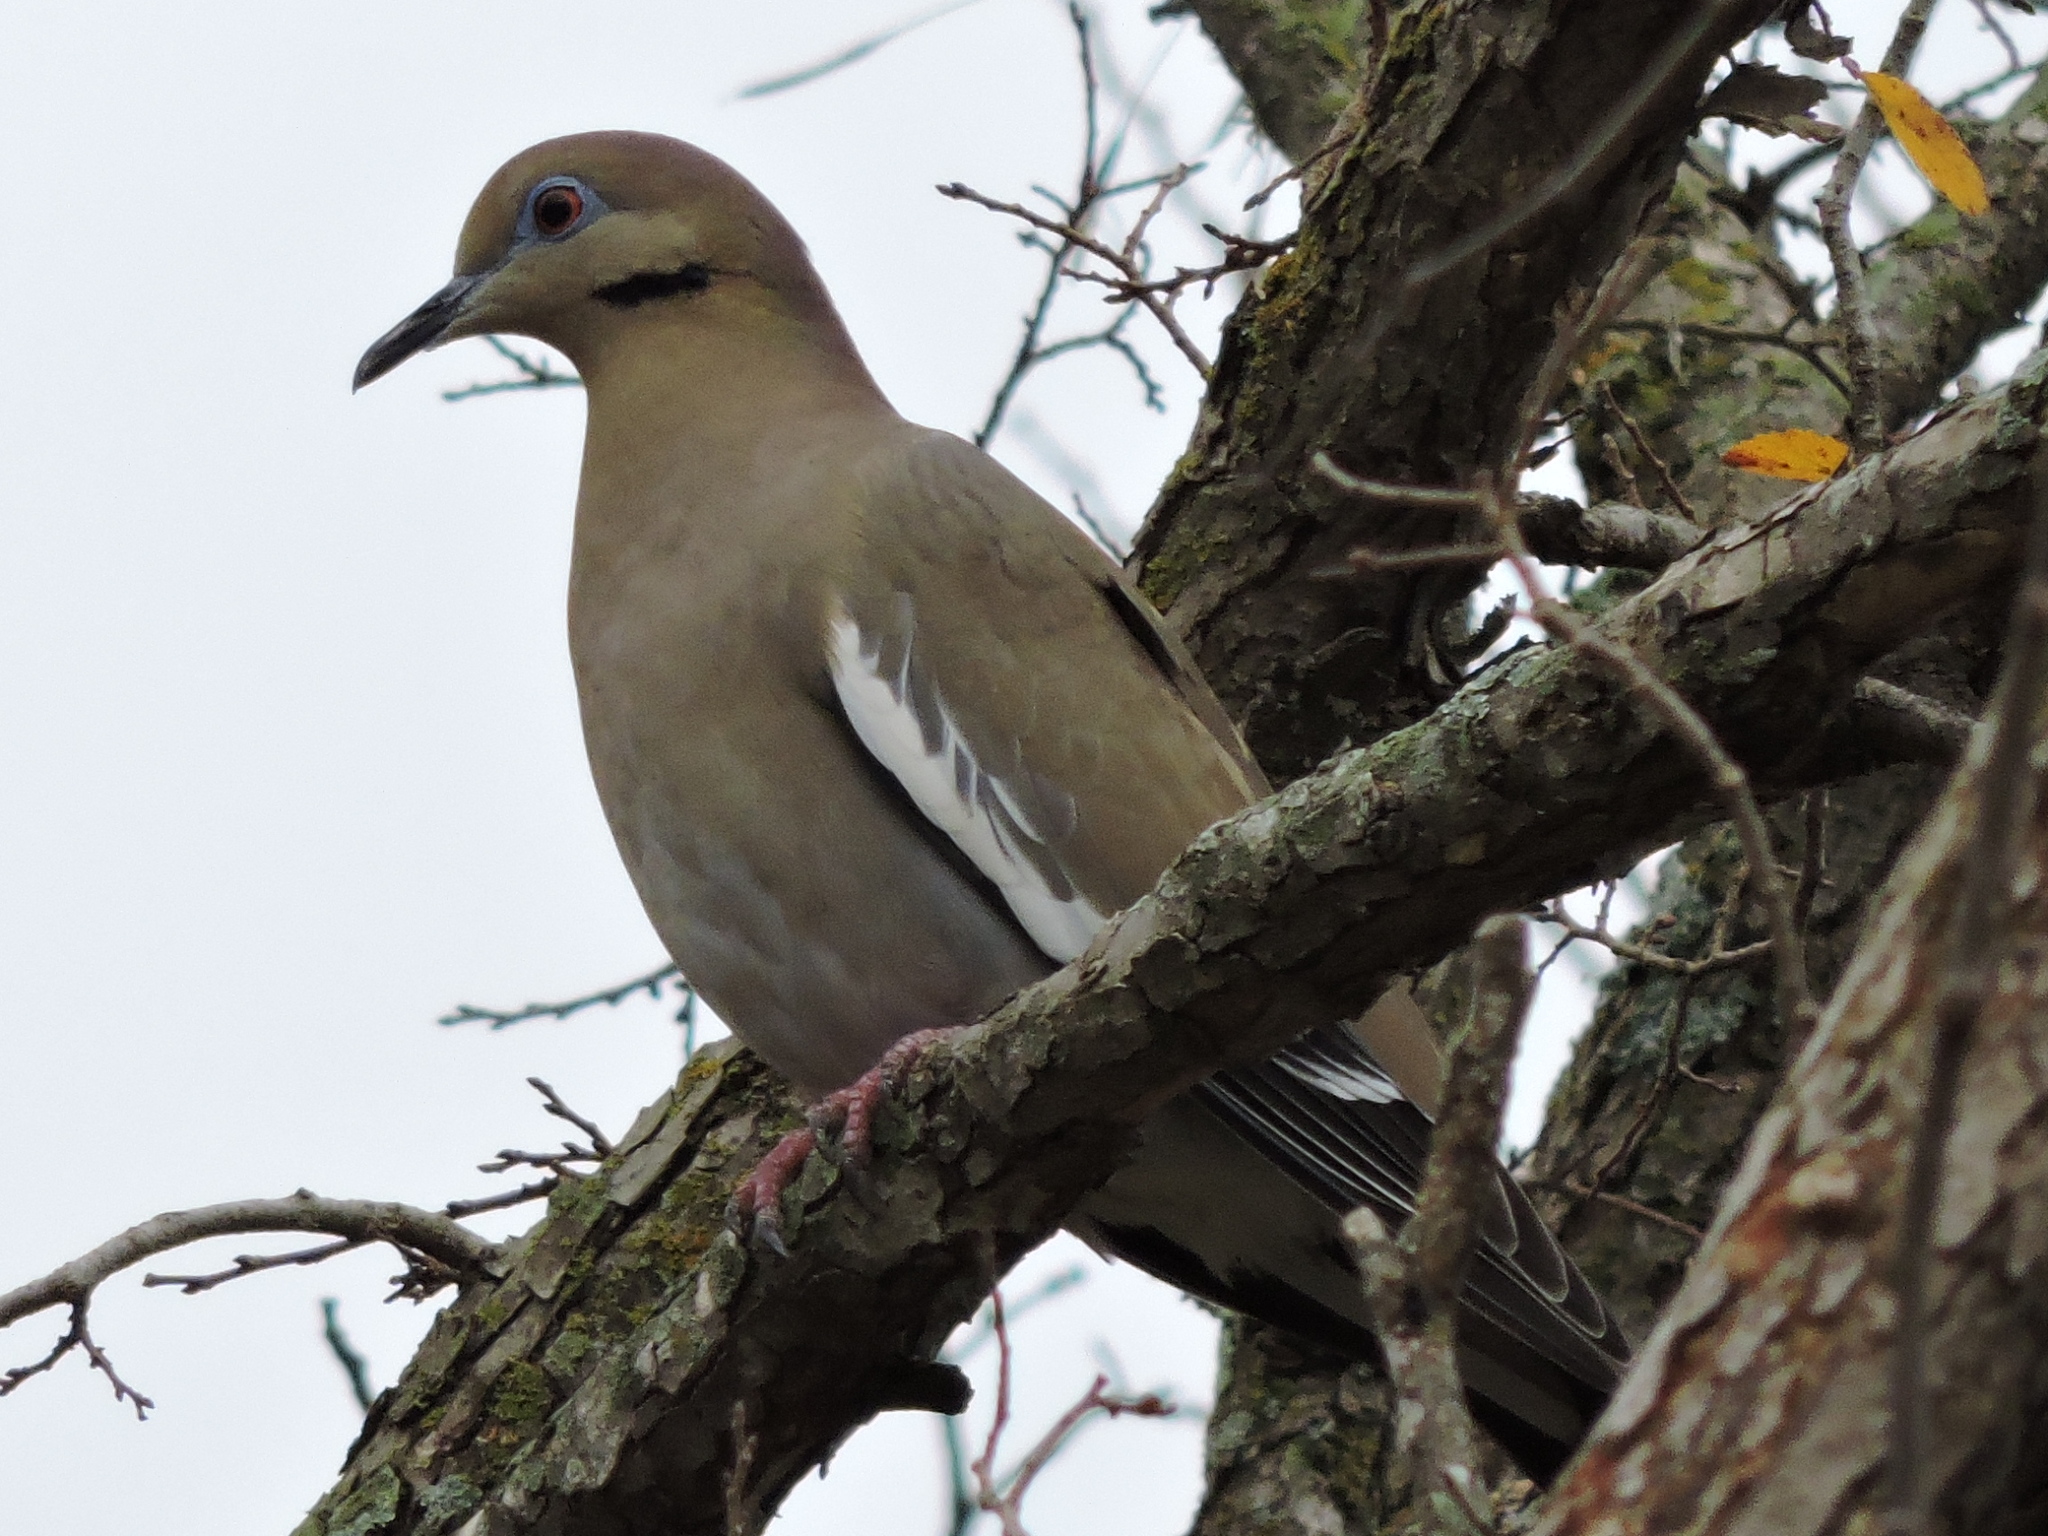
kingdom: Animalia
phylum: Chordata
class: Aves
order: Columbiformes
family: Columbidae
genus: Zenaida
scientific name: Zenaida asiatica
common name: White-winged dove
